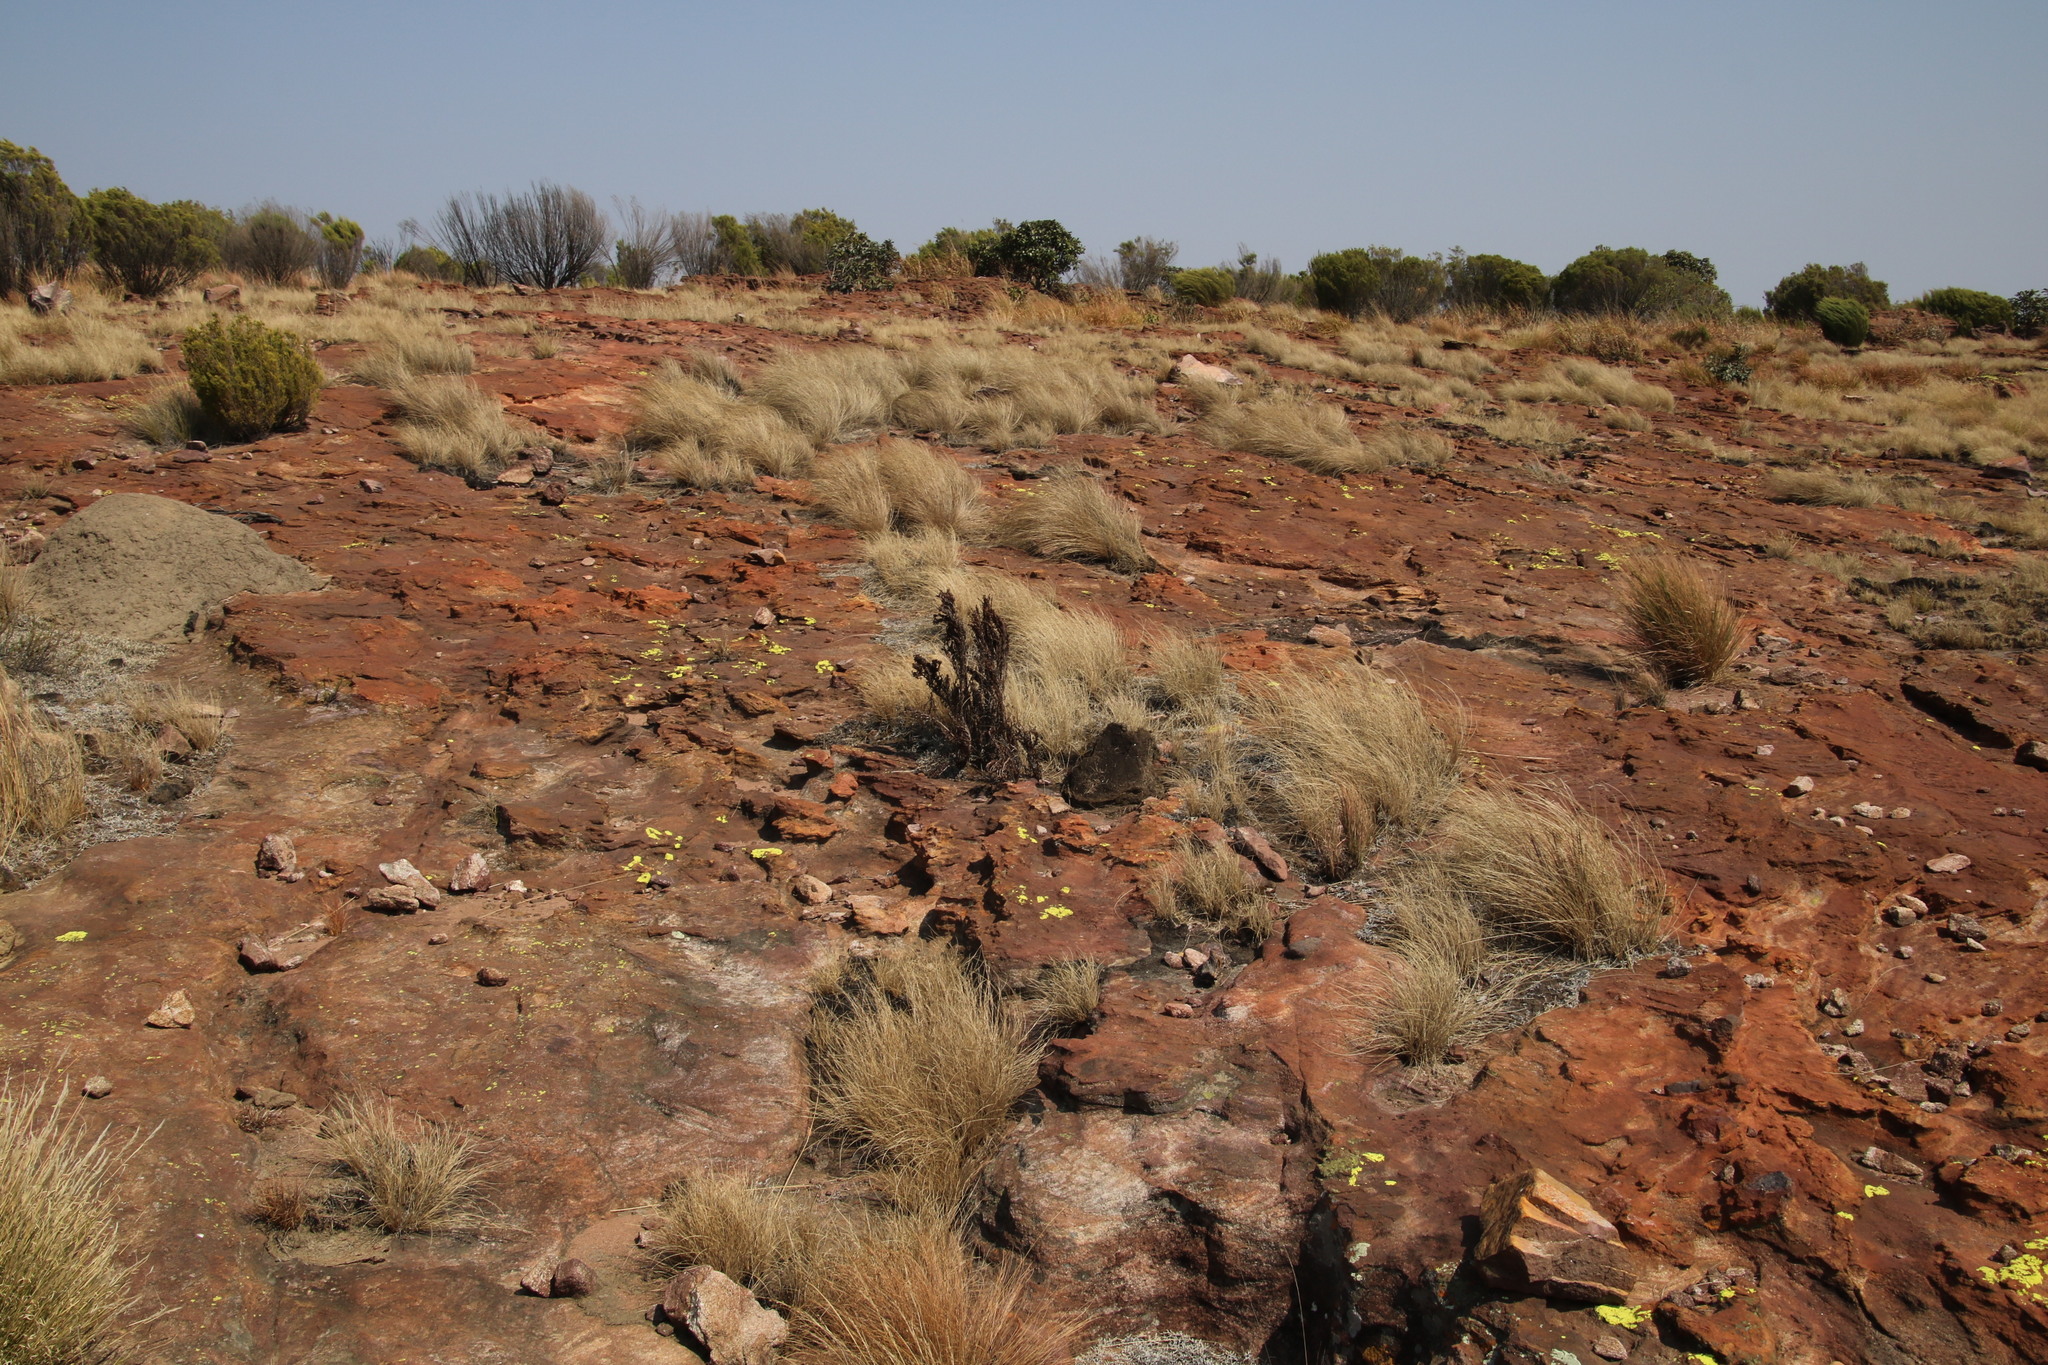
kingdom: Plantae
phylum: Tracheophyta
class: Magnoliopsida
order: Gunnerales
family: Myrothamnaceae
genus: Myrothamnus
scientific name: Myrothamnus flabellifolius
